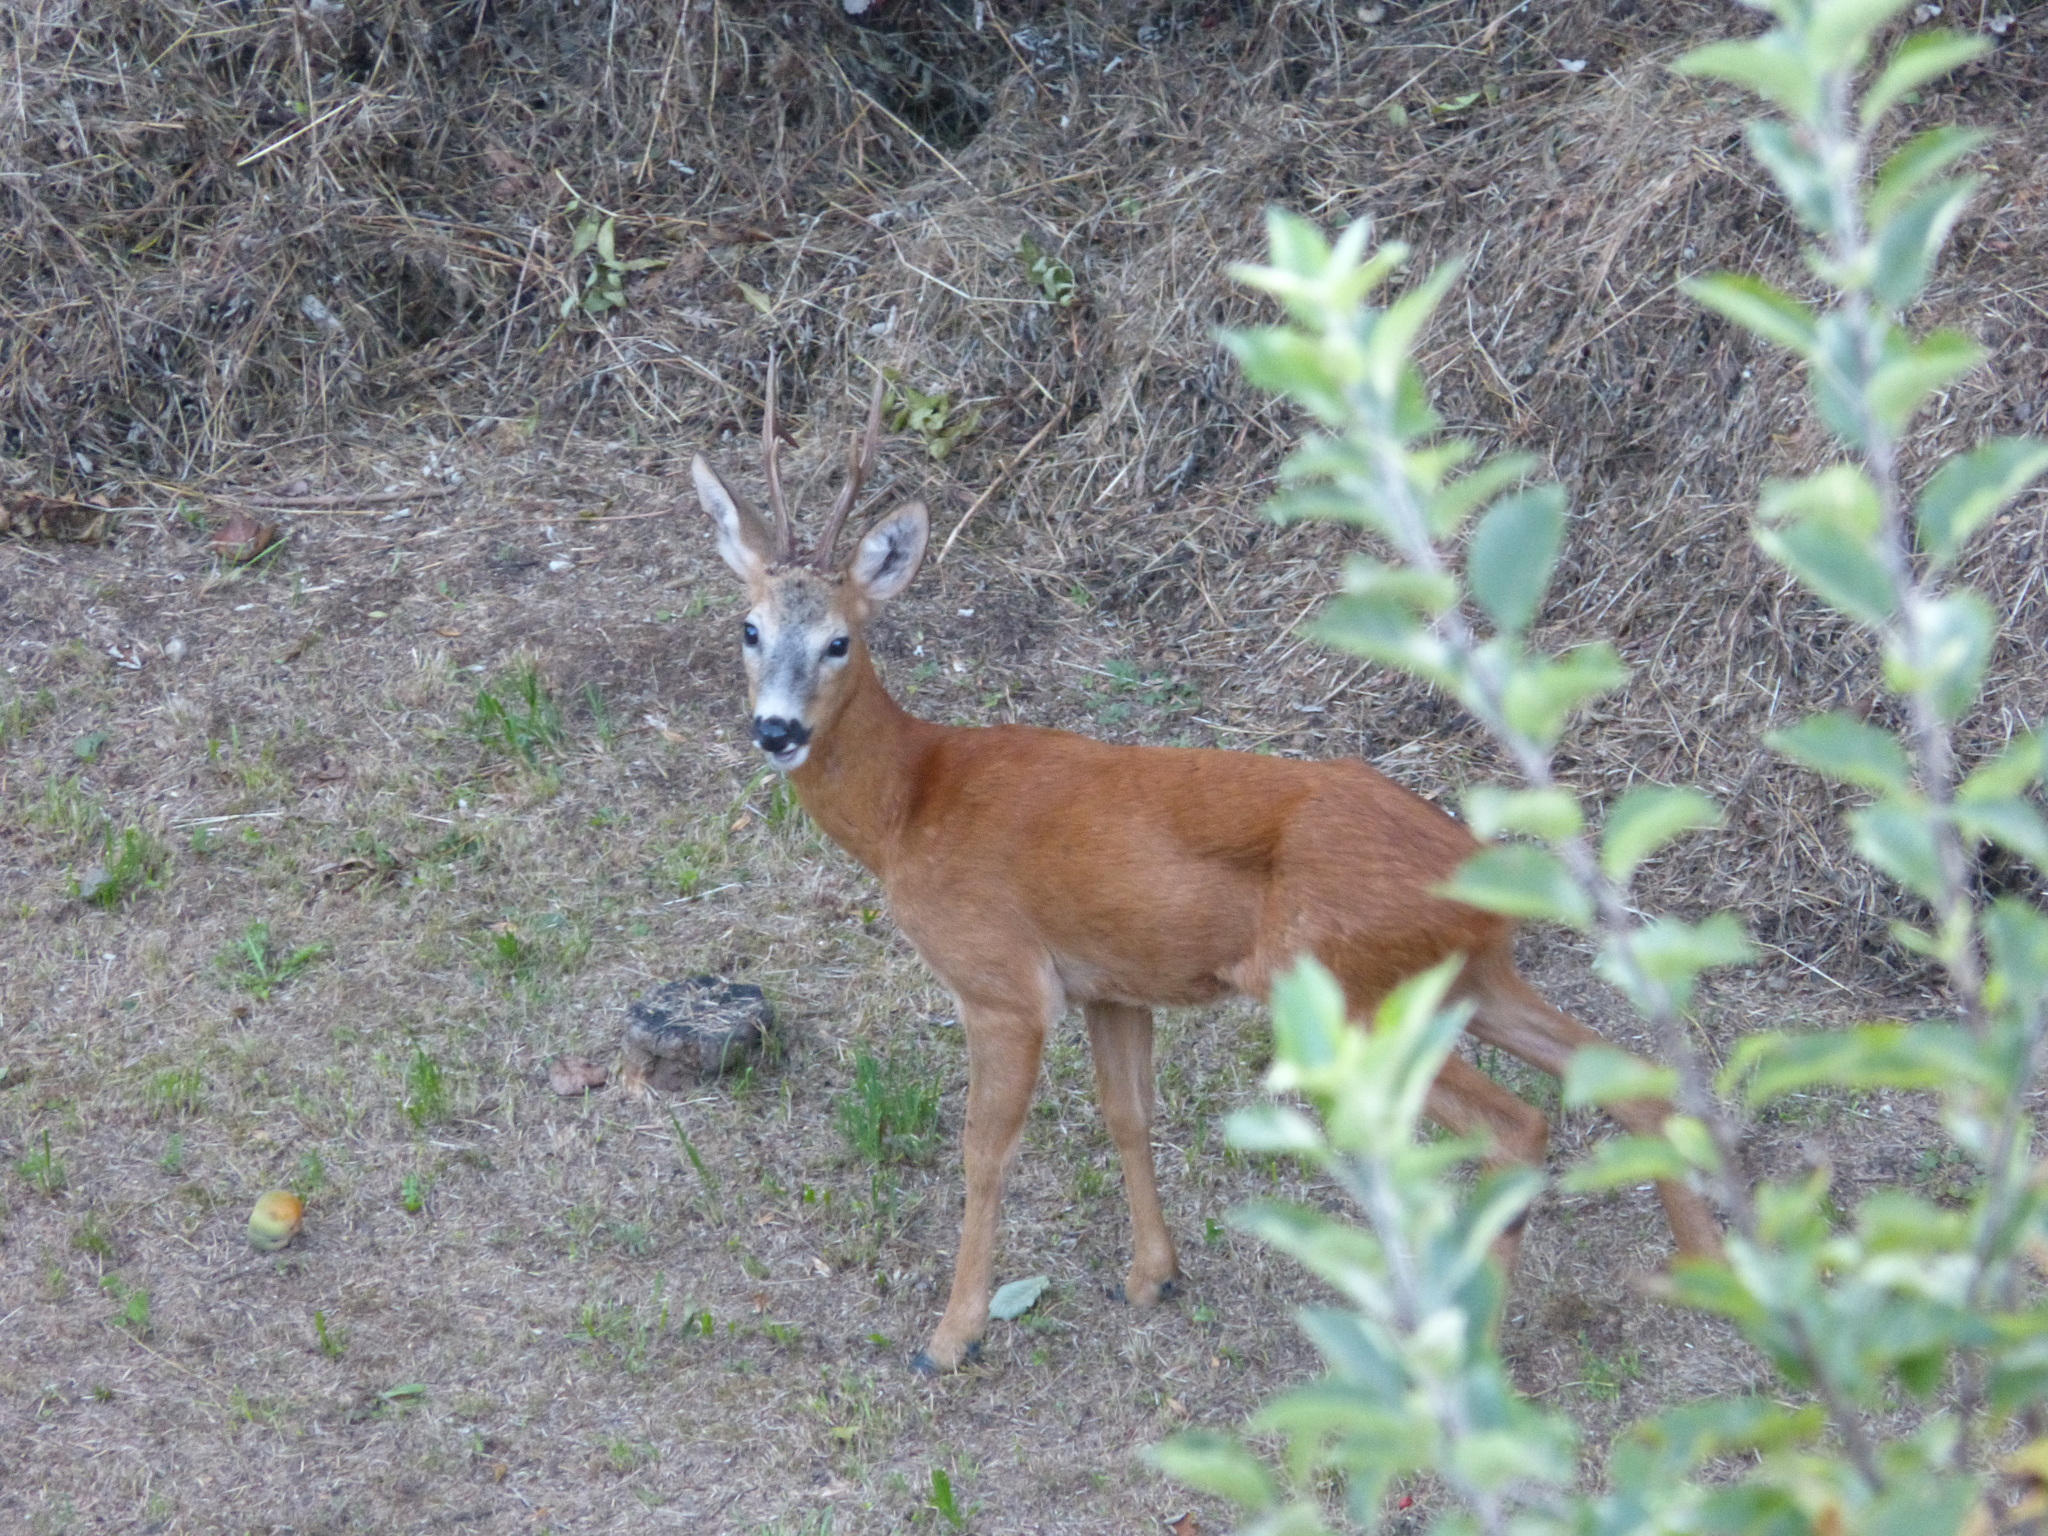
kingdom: Animalia
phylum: Chordata
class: Mammalia
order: Artiodactyla
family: Cervidae
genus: Capreolus
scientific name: Capreolus capreolus
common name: Western roe deer
